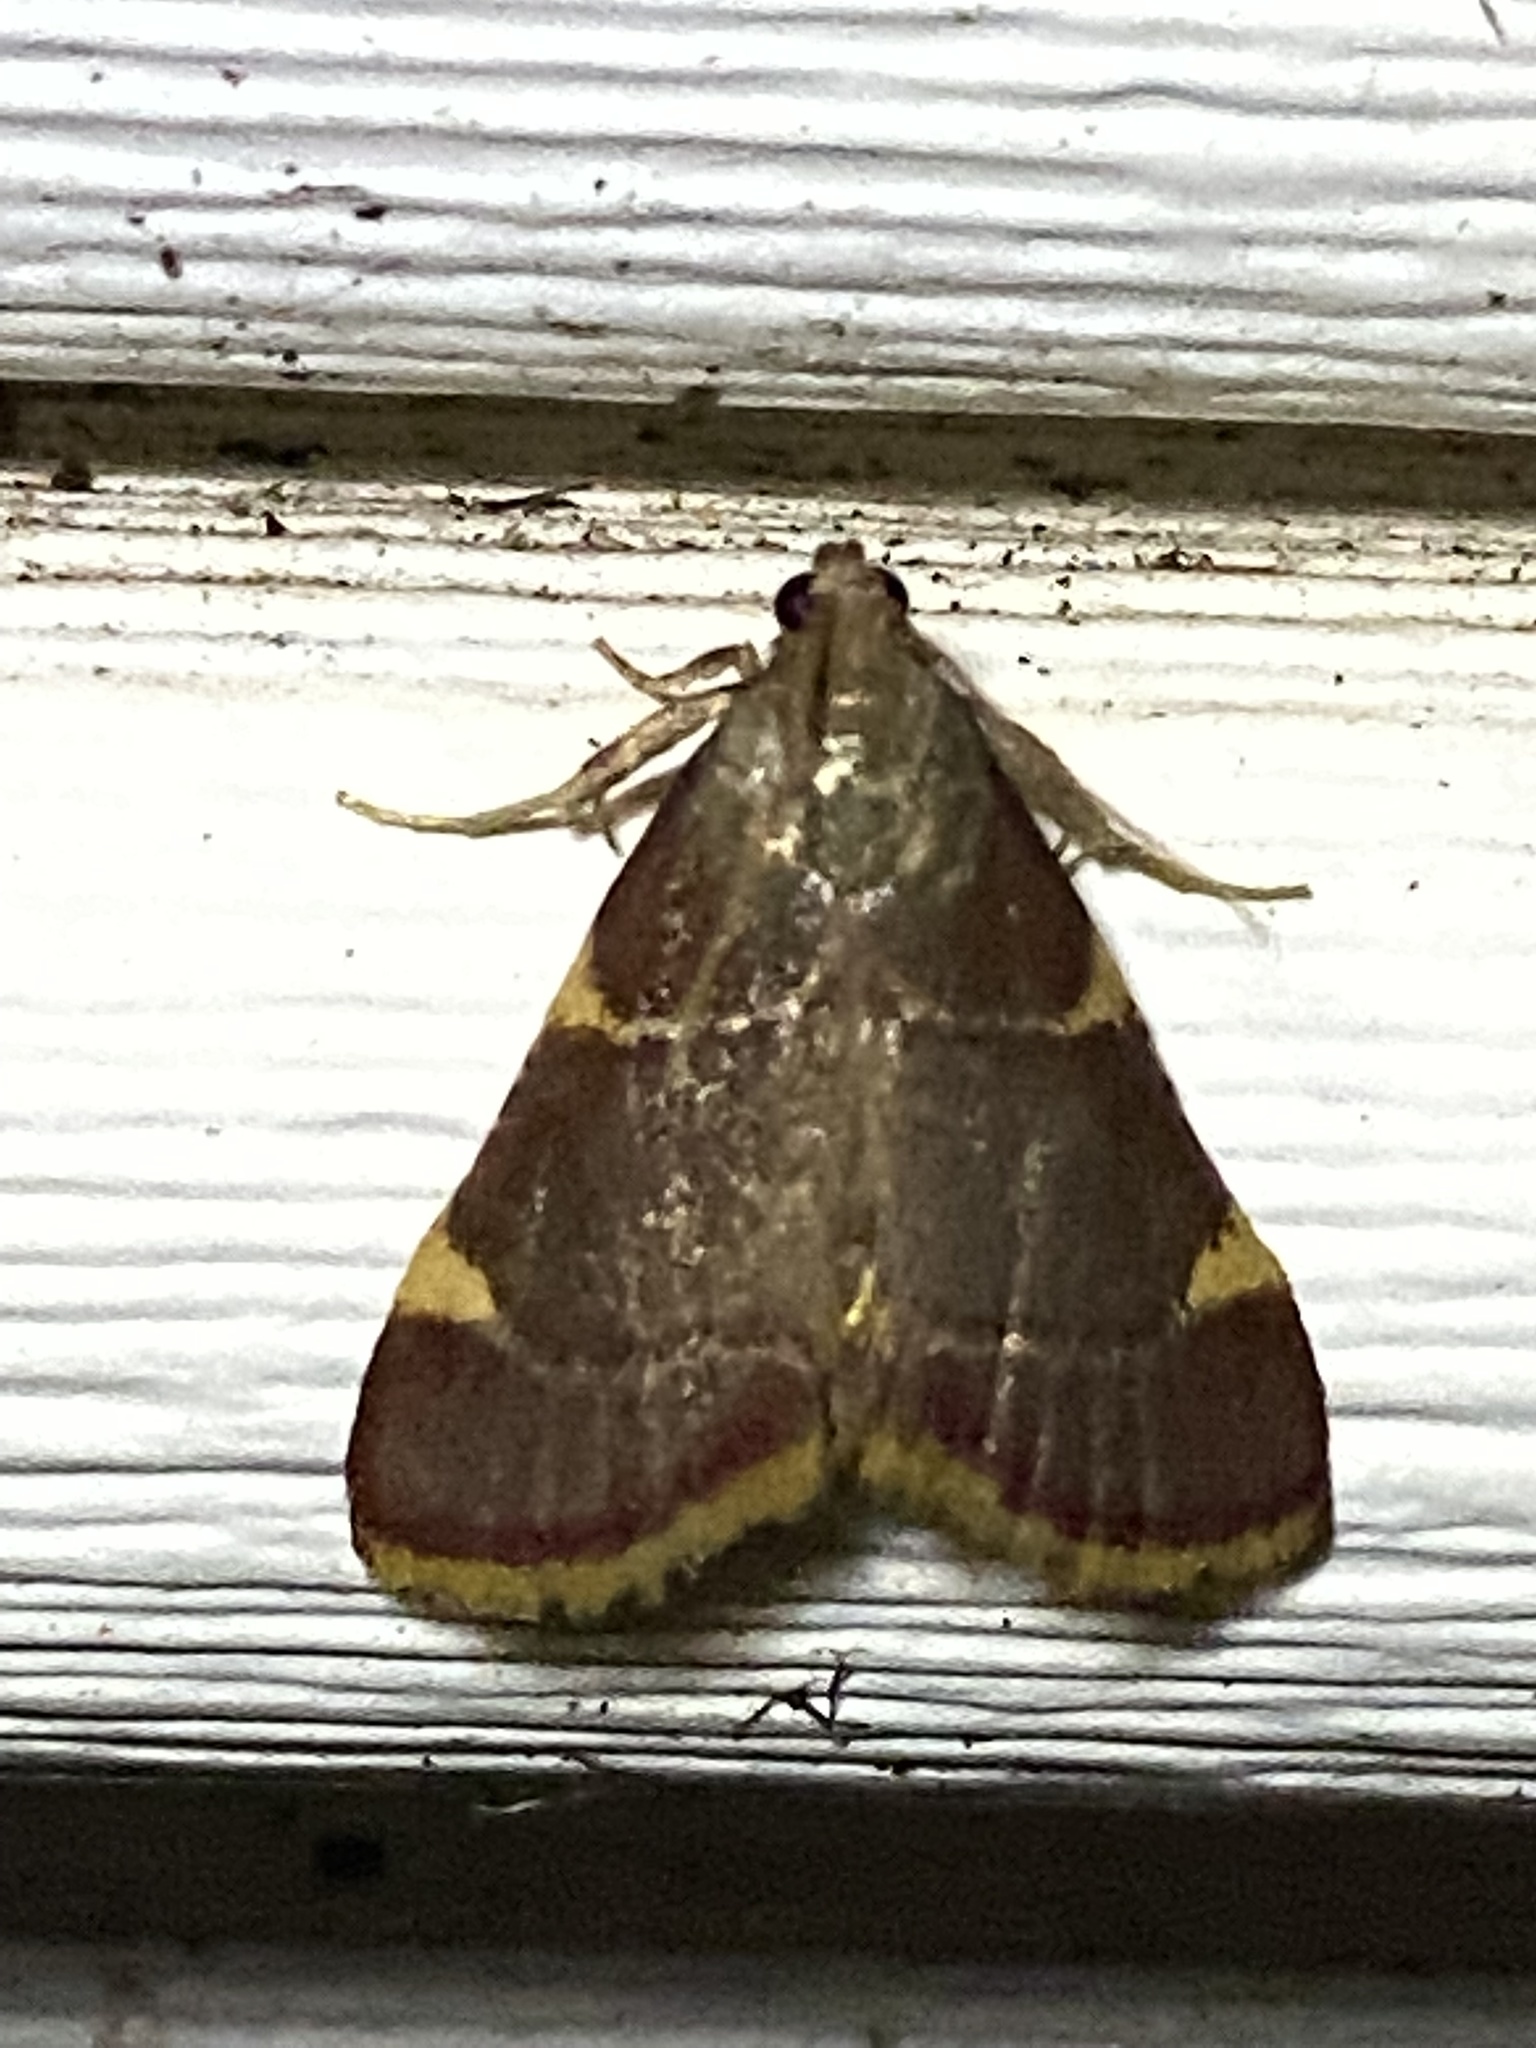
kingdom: Animalia
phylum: Arthropoda
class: Insecta
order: Lepidoptera
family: Pyralidae
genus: Hypsopygia
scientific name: Hypsopygia olinalis
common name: Yellow-fringed dolichomia moth
